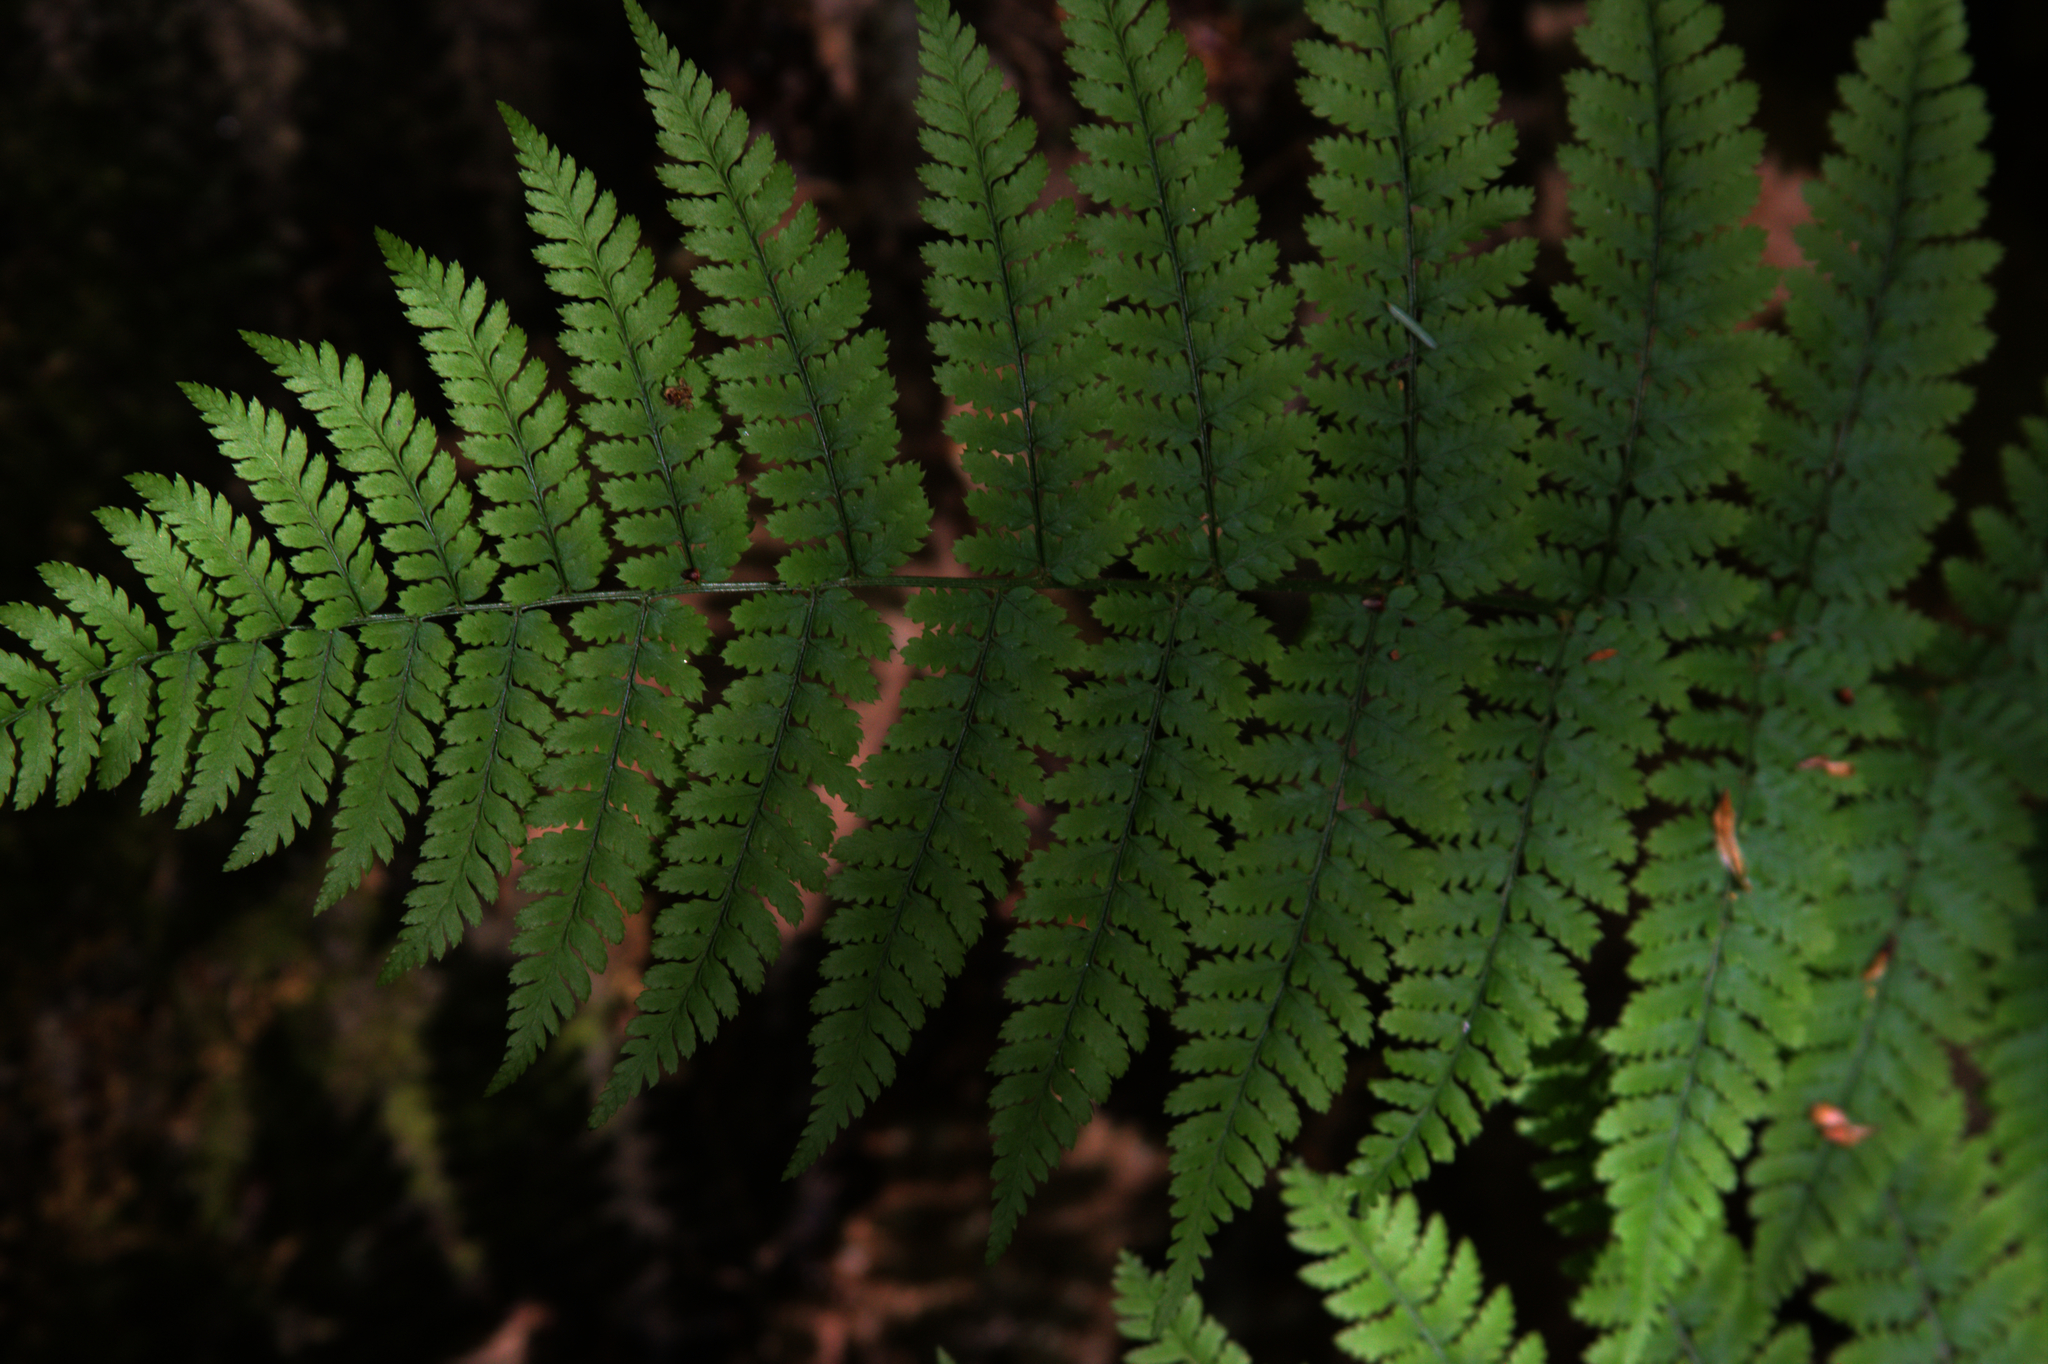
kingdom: Plantae
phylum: Tracheophyta
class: Polypodiopsida
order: Polypodiales
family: Dryopteridaceae
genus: Dryopteris
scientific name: Dryopteris intermedia
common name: Evergreen wood fern
